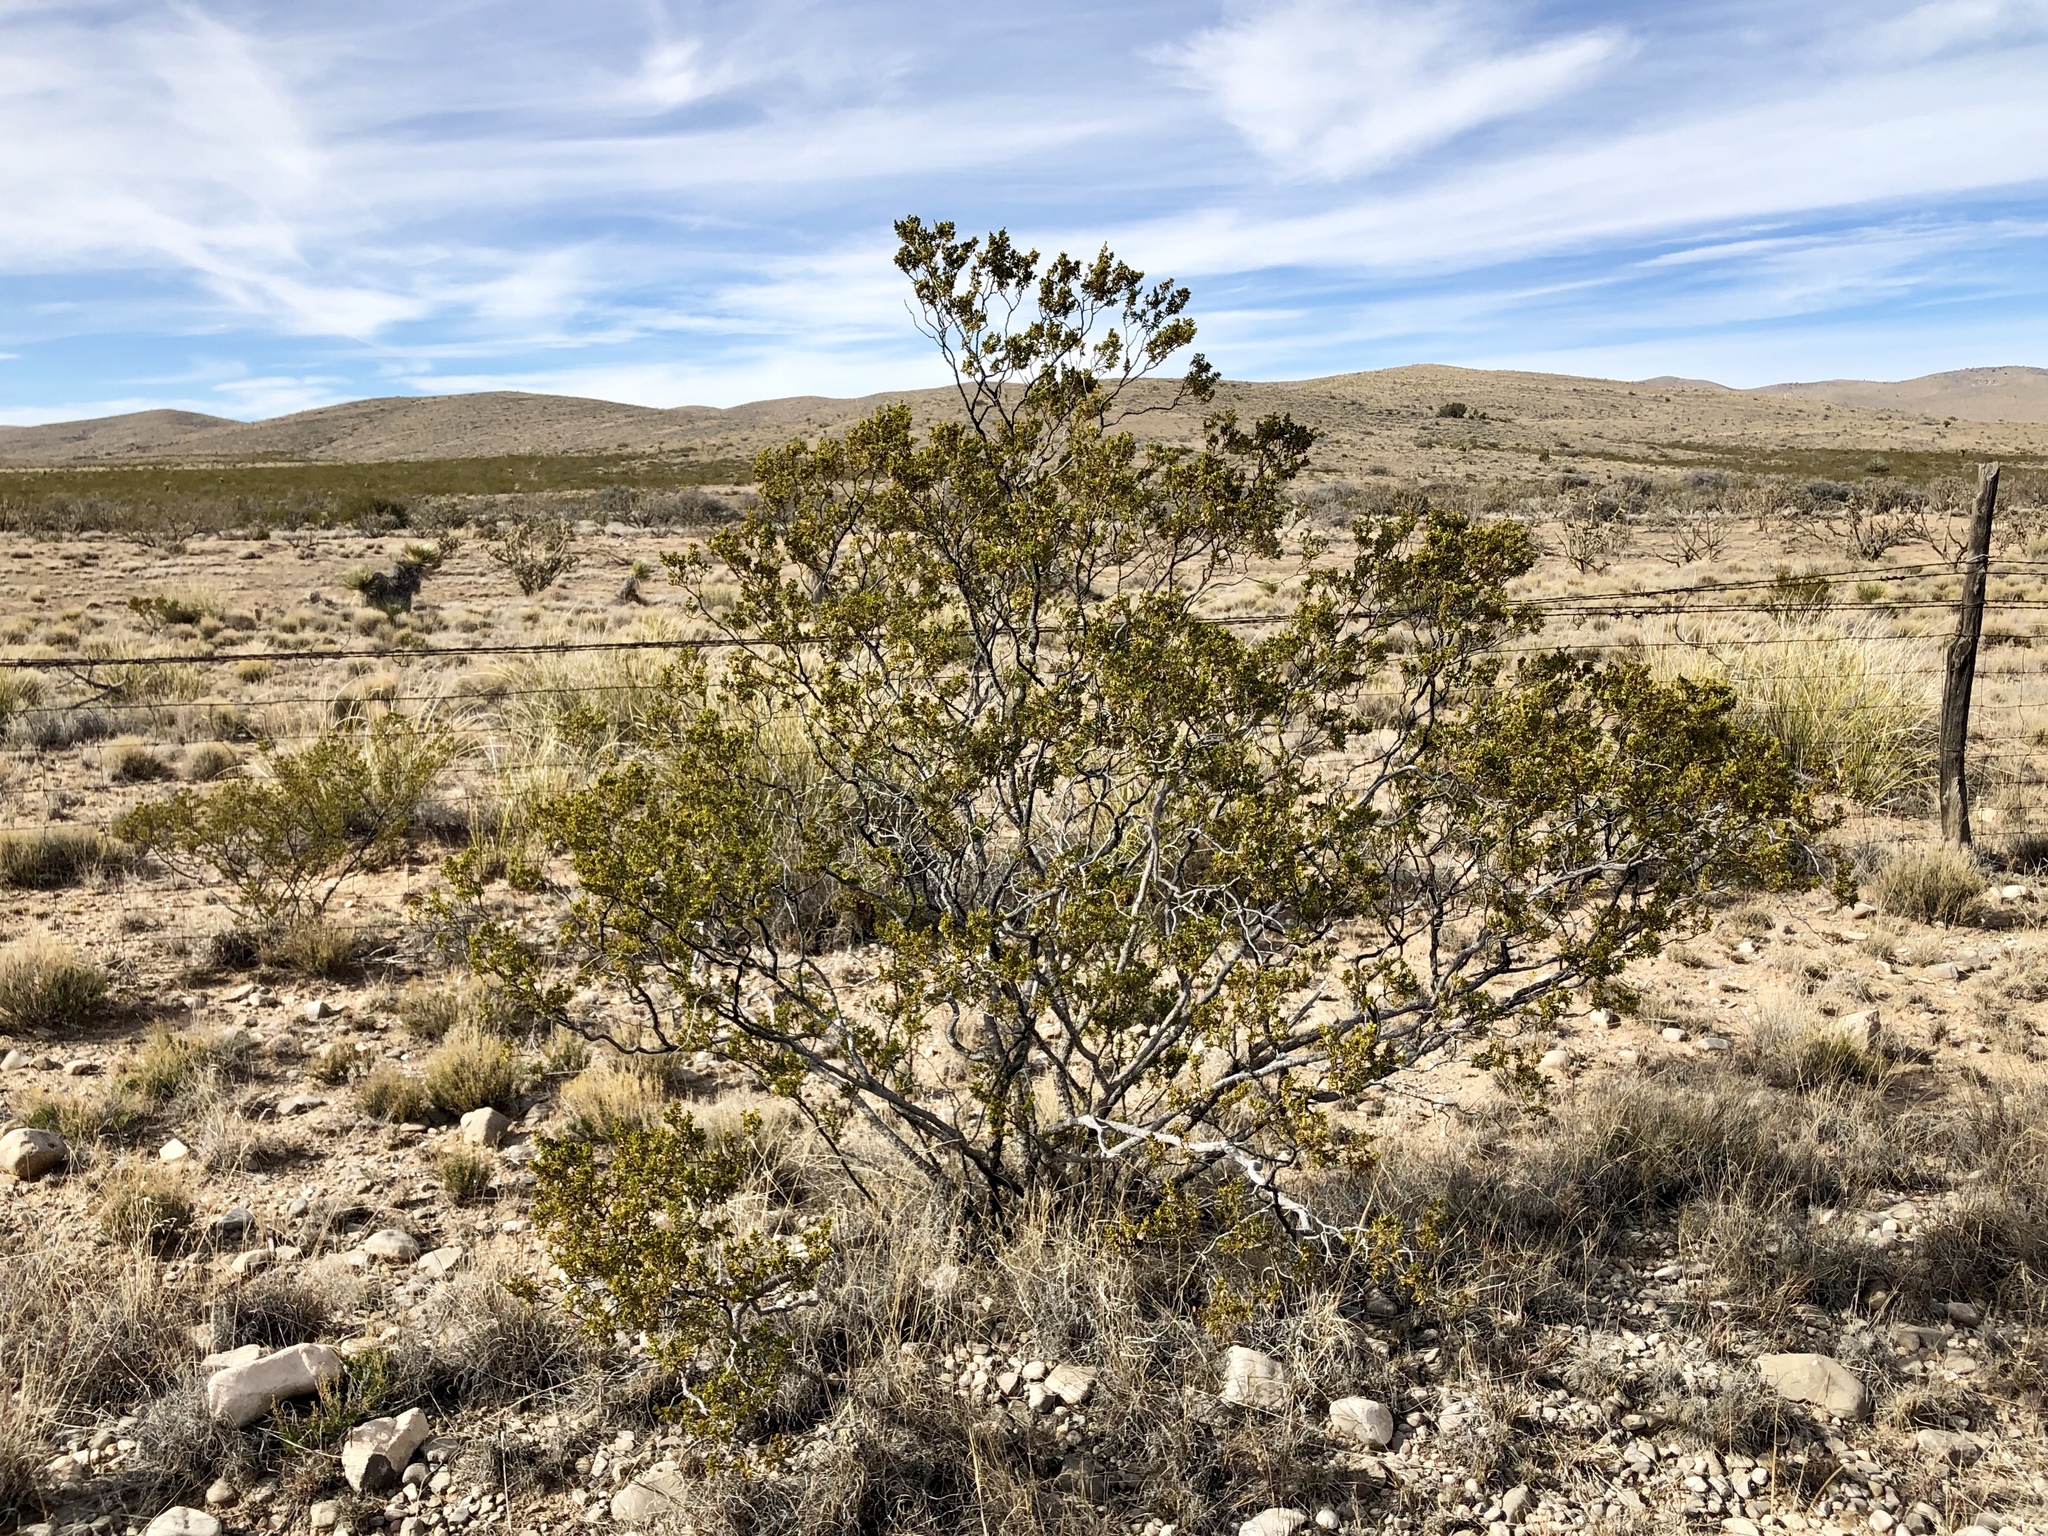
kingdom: Plantae
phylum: Tracheophyta
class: Magnoliopsida
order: Zygophyllales
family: Zygophyllaceae
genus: Larrea
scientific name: Larrea tridentata
